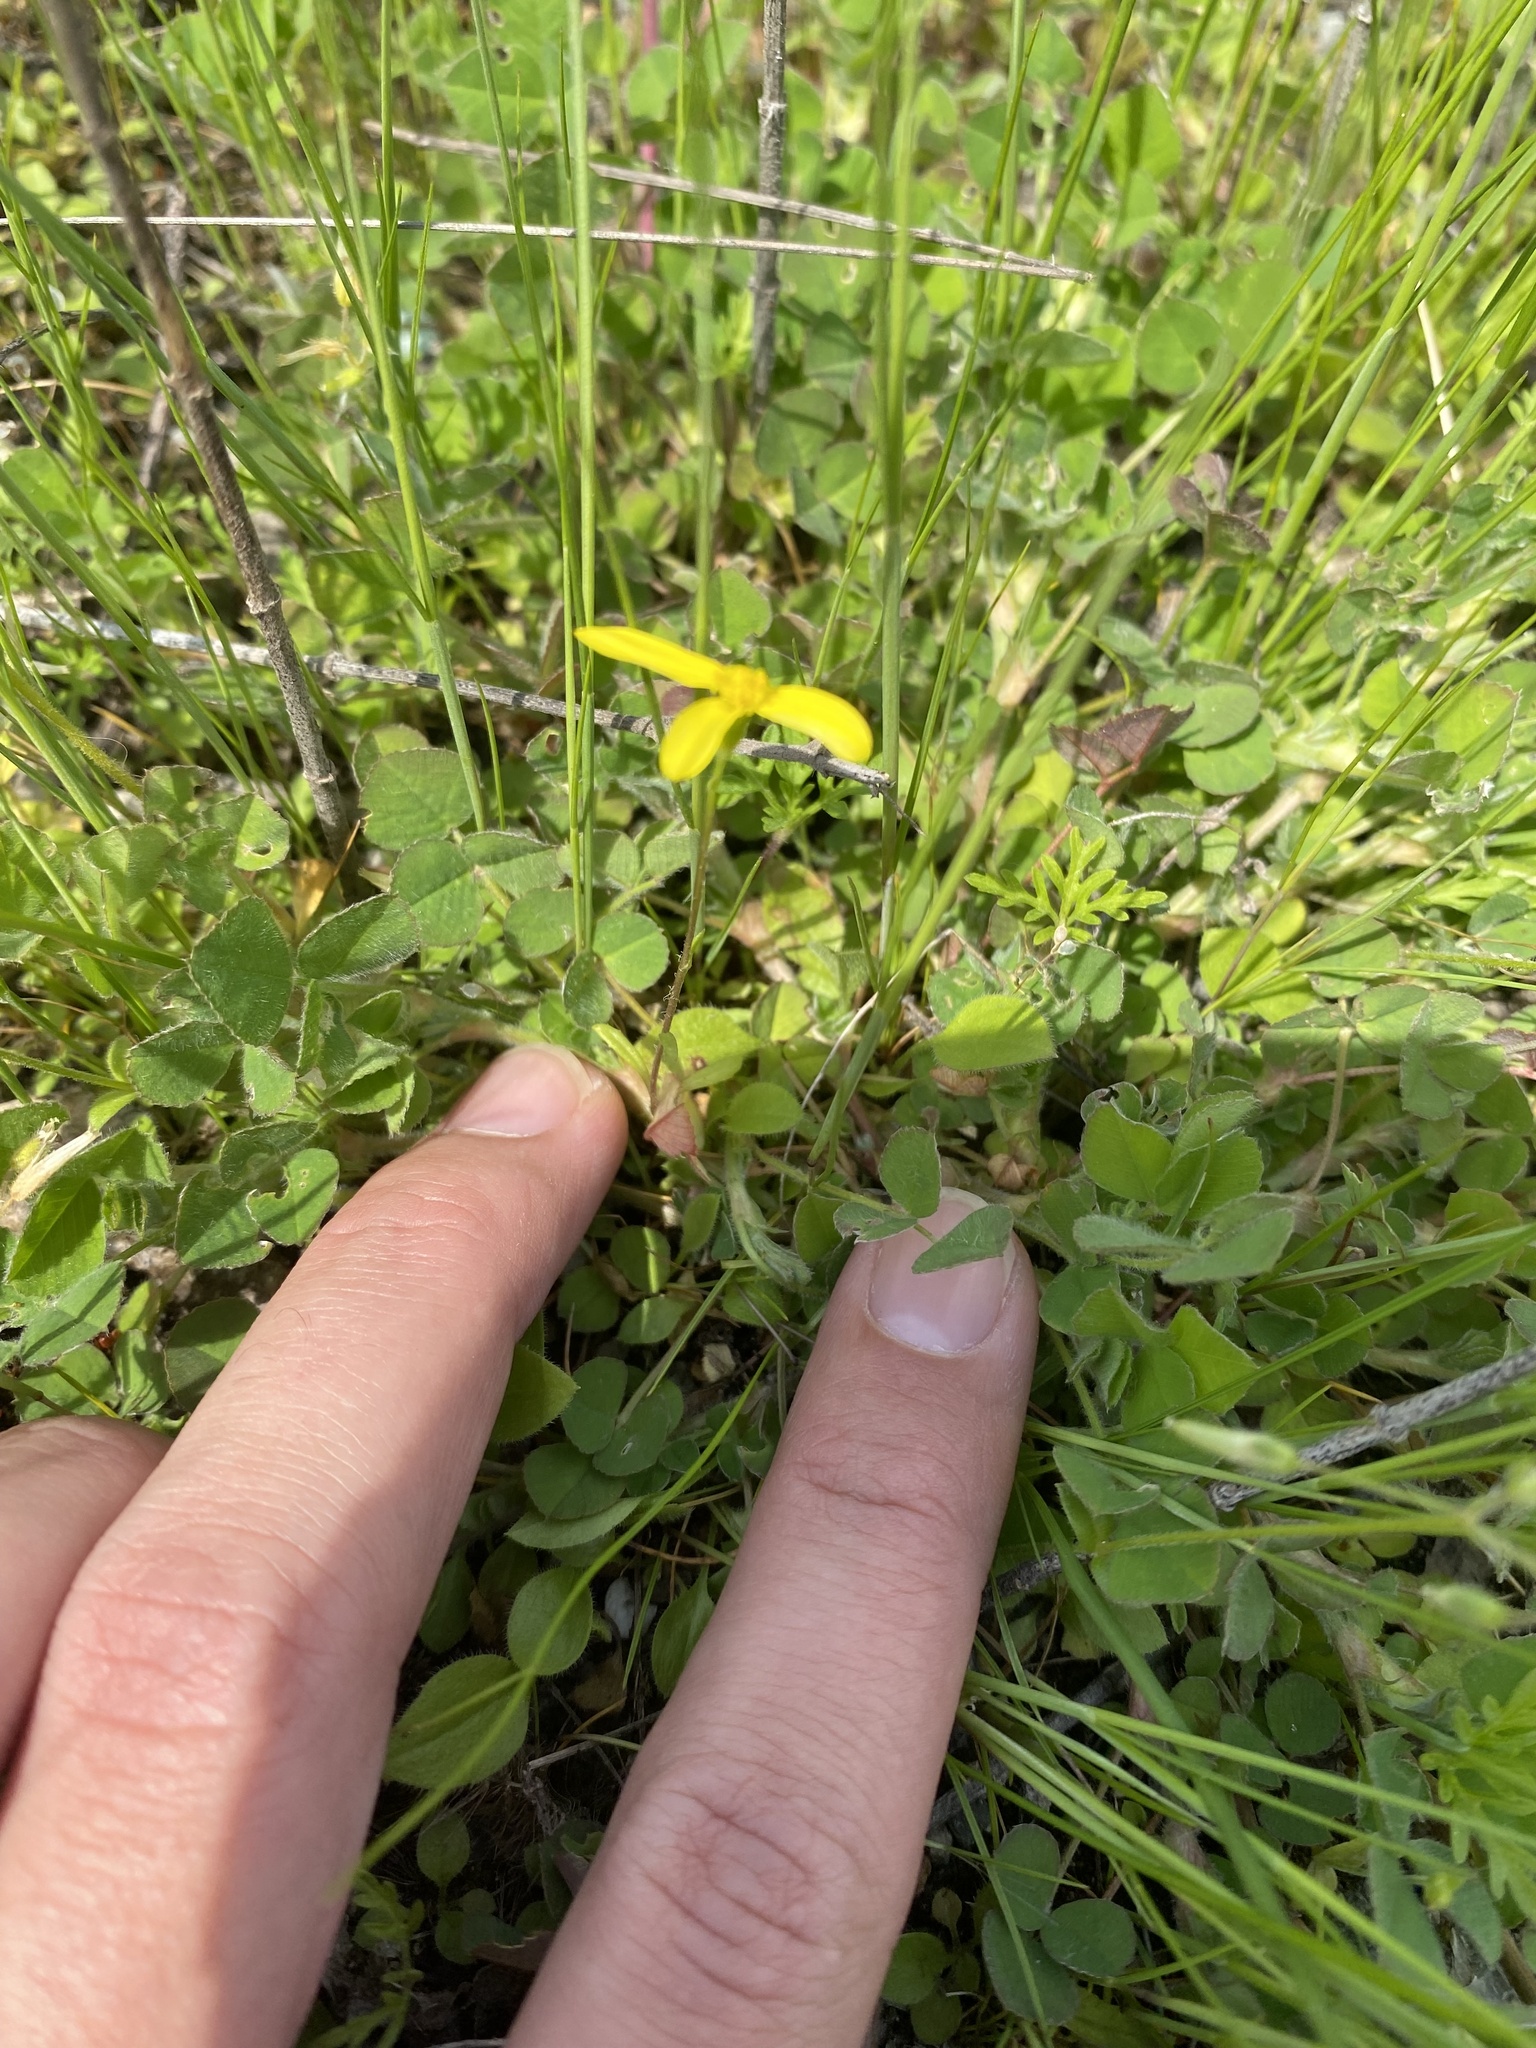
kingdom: Plantae
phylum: Tracheophyta
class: Magnoliopsida
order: Asterales
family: Asteraceae
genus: Senecio
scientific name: Senecio vernalis
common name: Eastern groundsel
